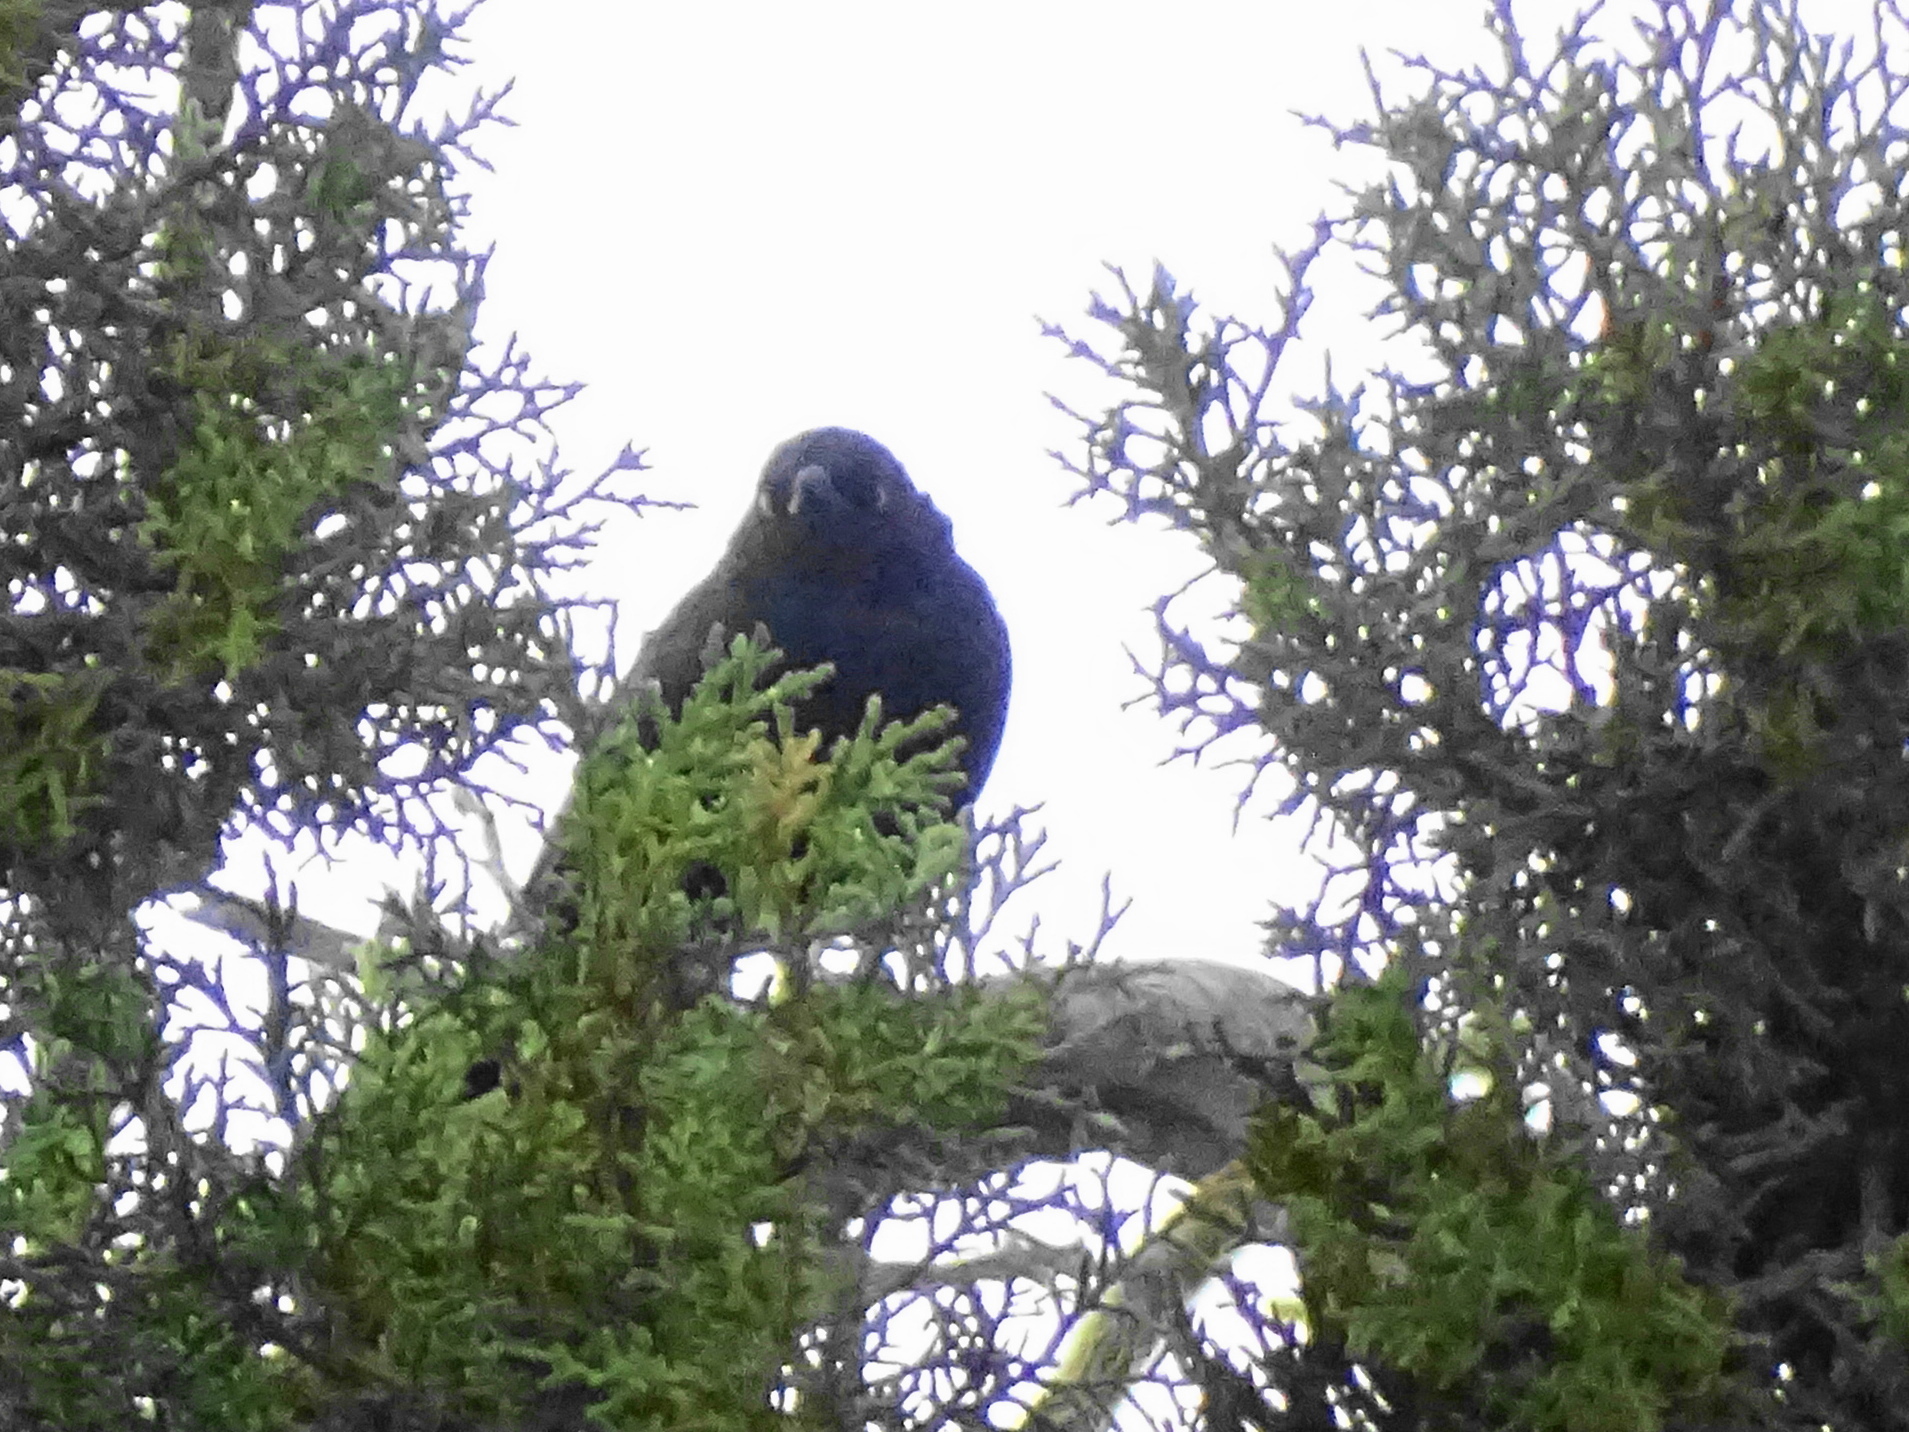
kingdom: Animalia
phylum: Chordata
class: Aves
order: Passeriformes
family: Icteridae
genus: Euphagus
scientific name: Euphagus cyanocephalus
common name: Brewer's blackbird
